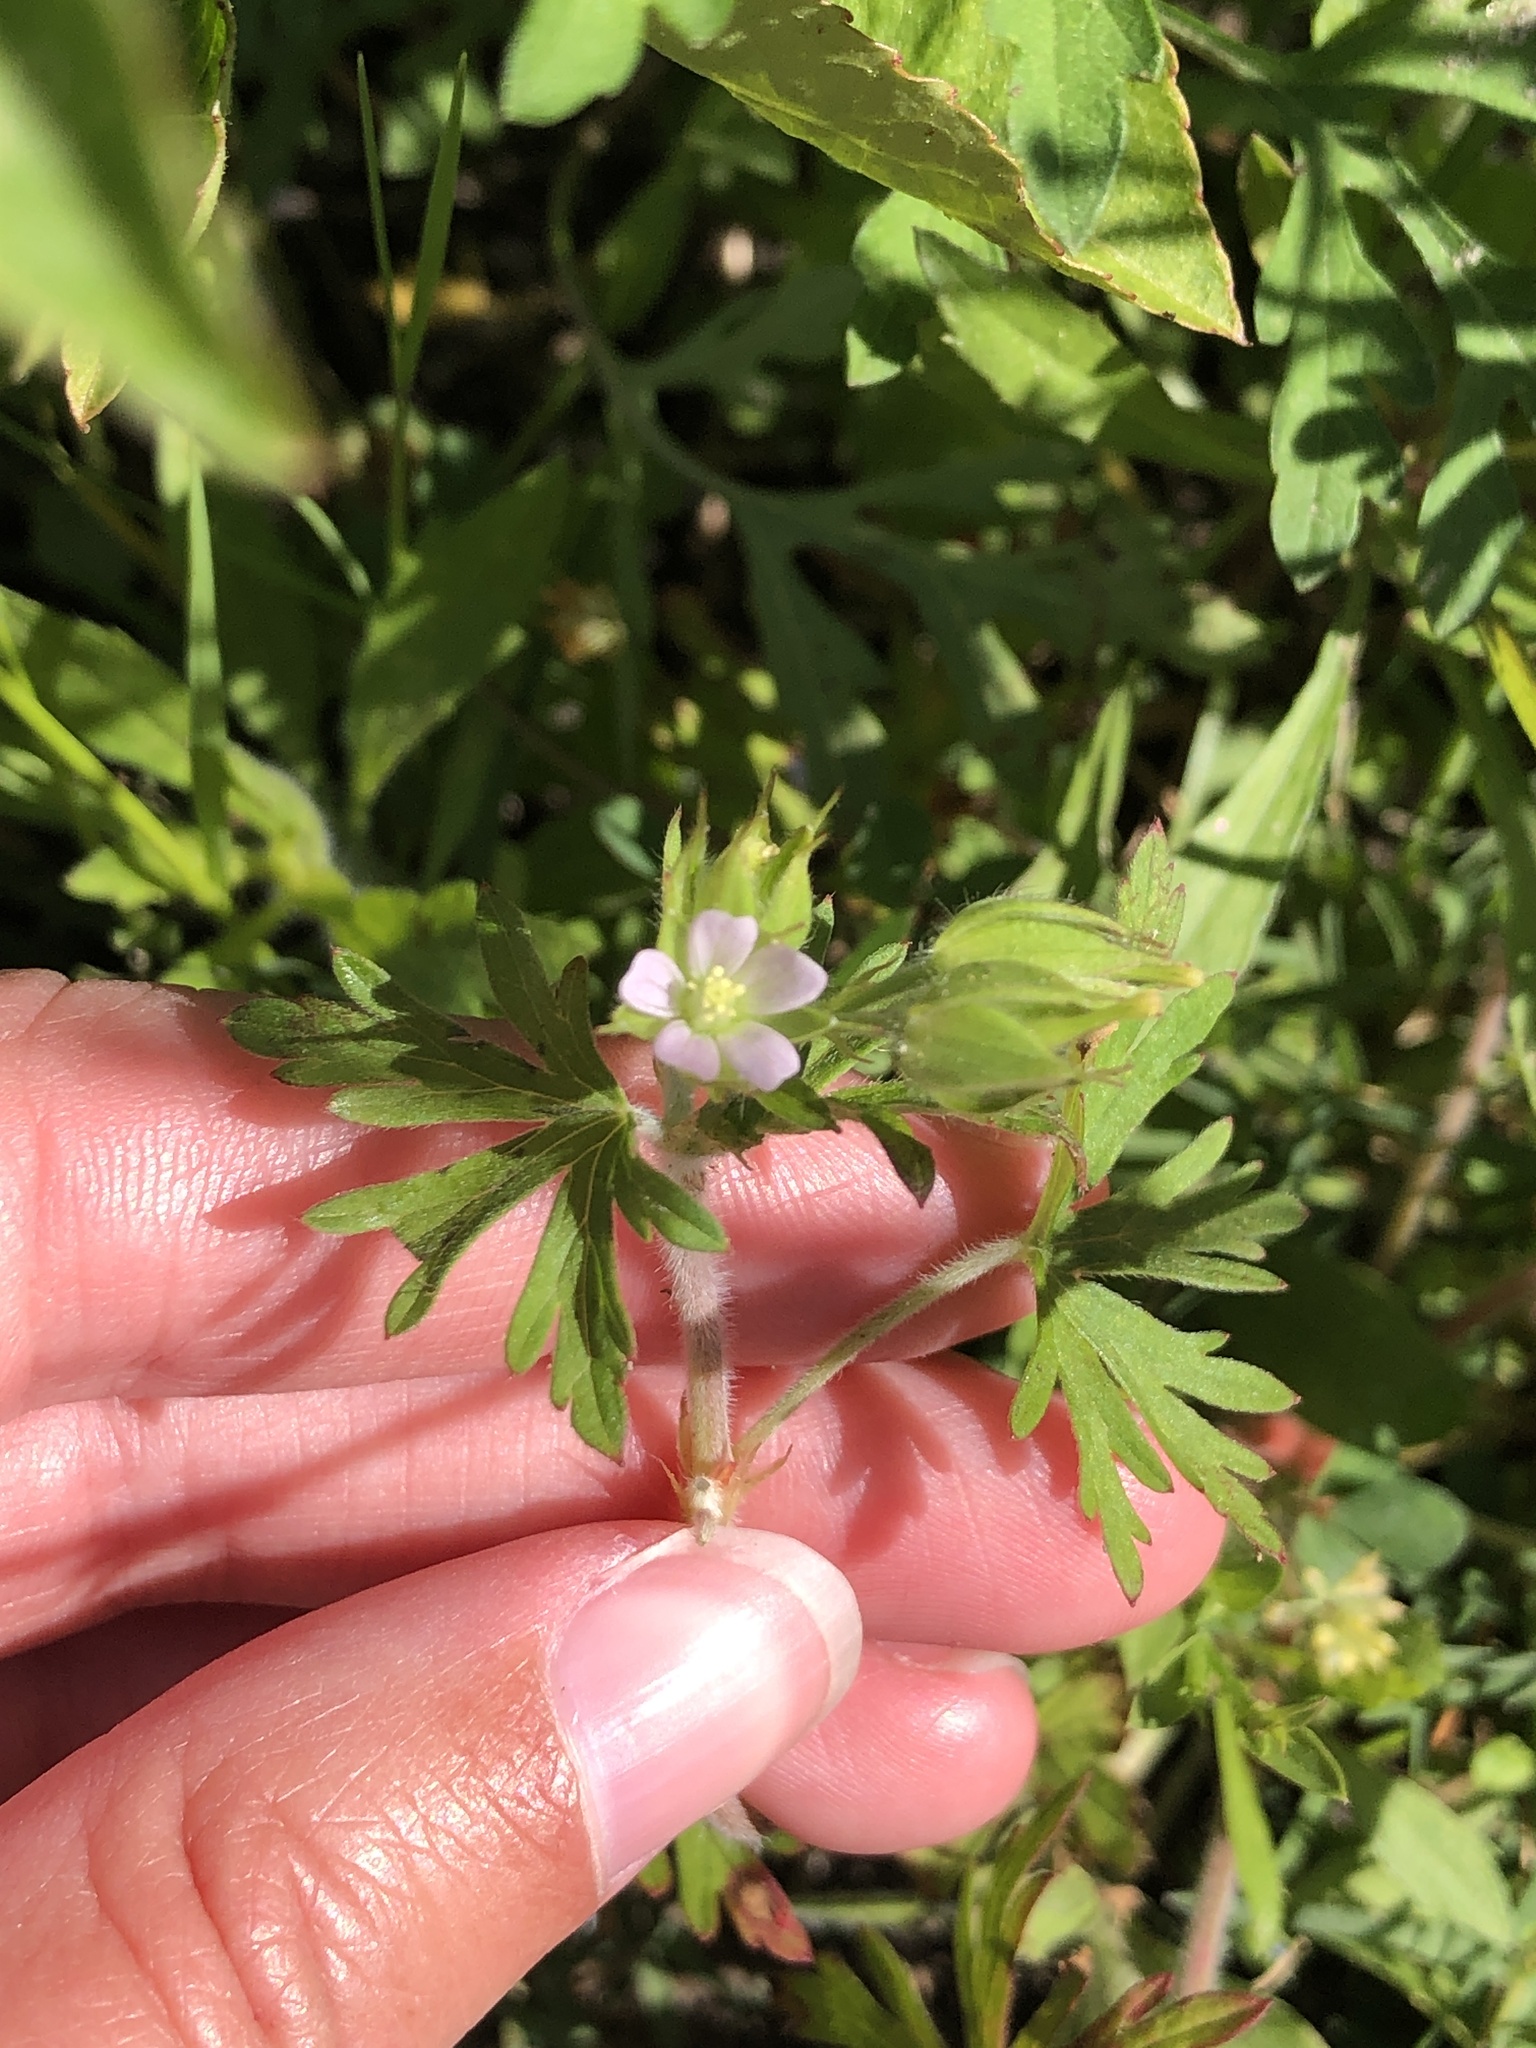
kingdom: Plantae
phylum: Tracheophyta
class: Magnoliopsida
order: Geraniales
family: Geraniaceae
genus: Geranium
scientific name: Geranium carolinianum
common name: Carolina crane's-bill
